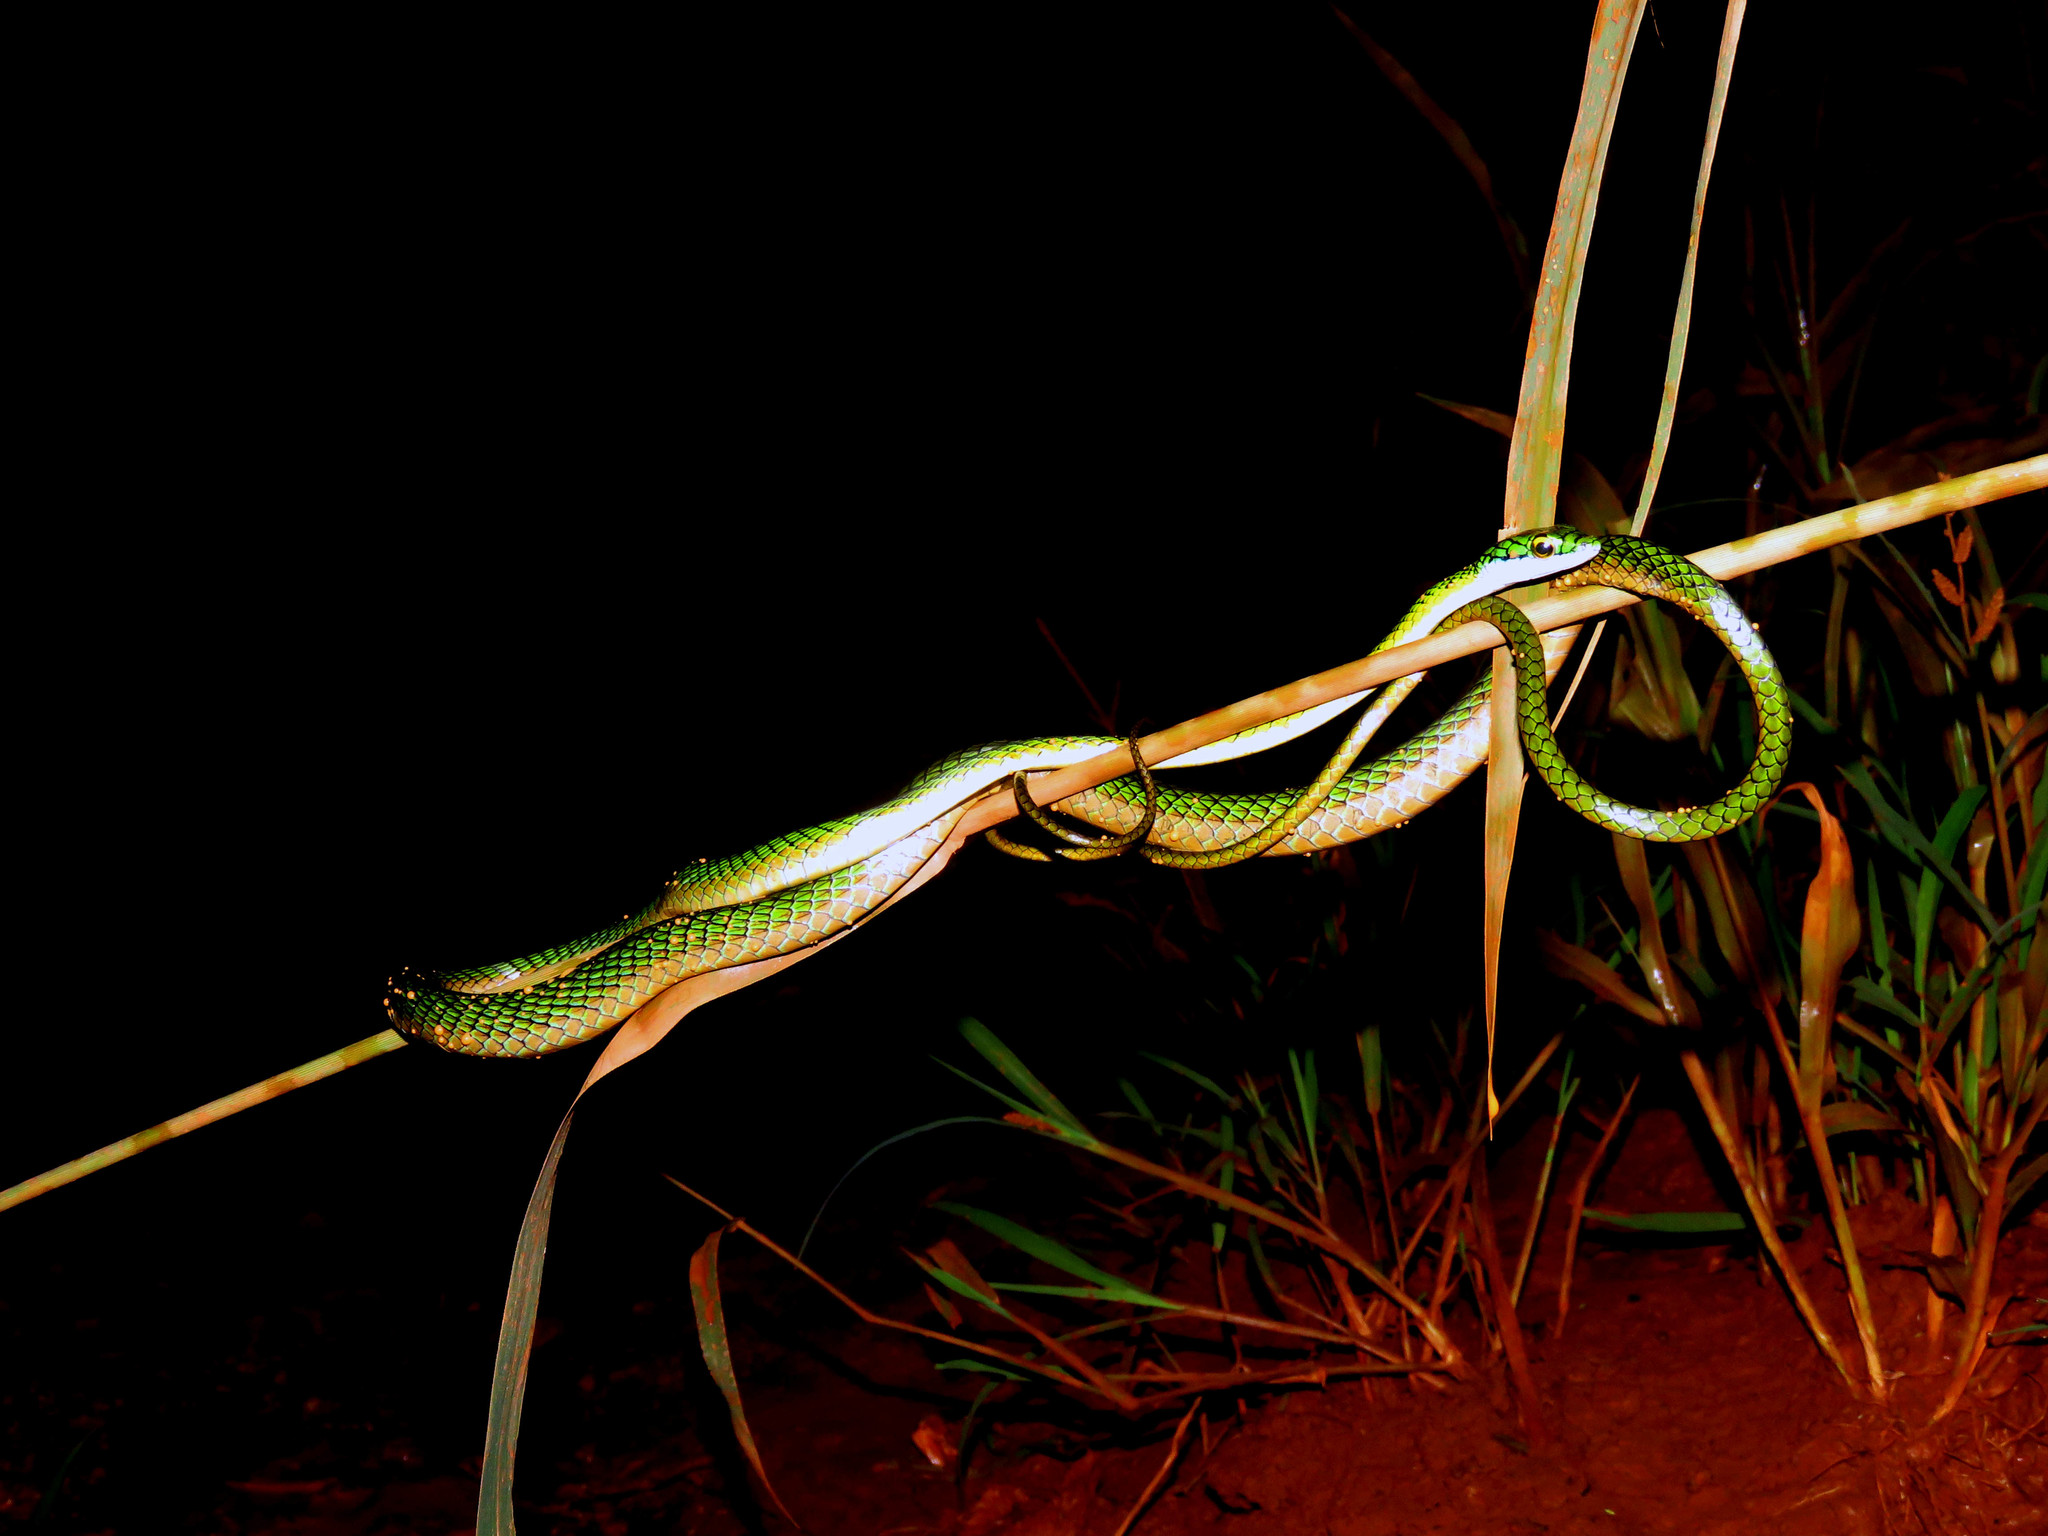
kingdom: Animalia
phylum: Chordata
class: Squamata
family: Colubridae
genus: Leptophis
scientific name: Leptophis ahaetulla
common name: Parrot snake
